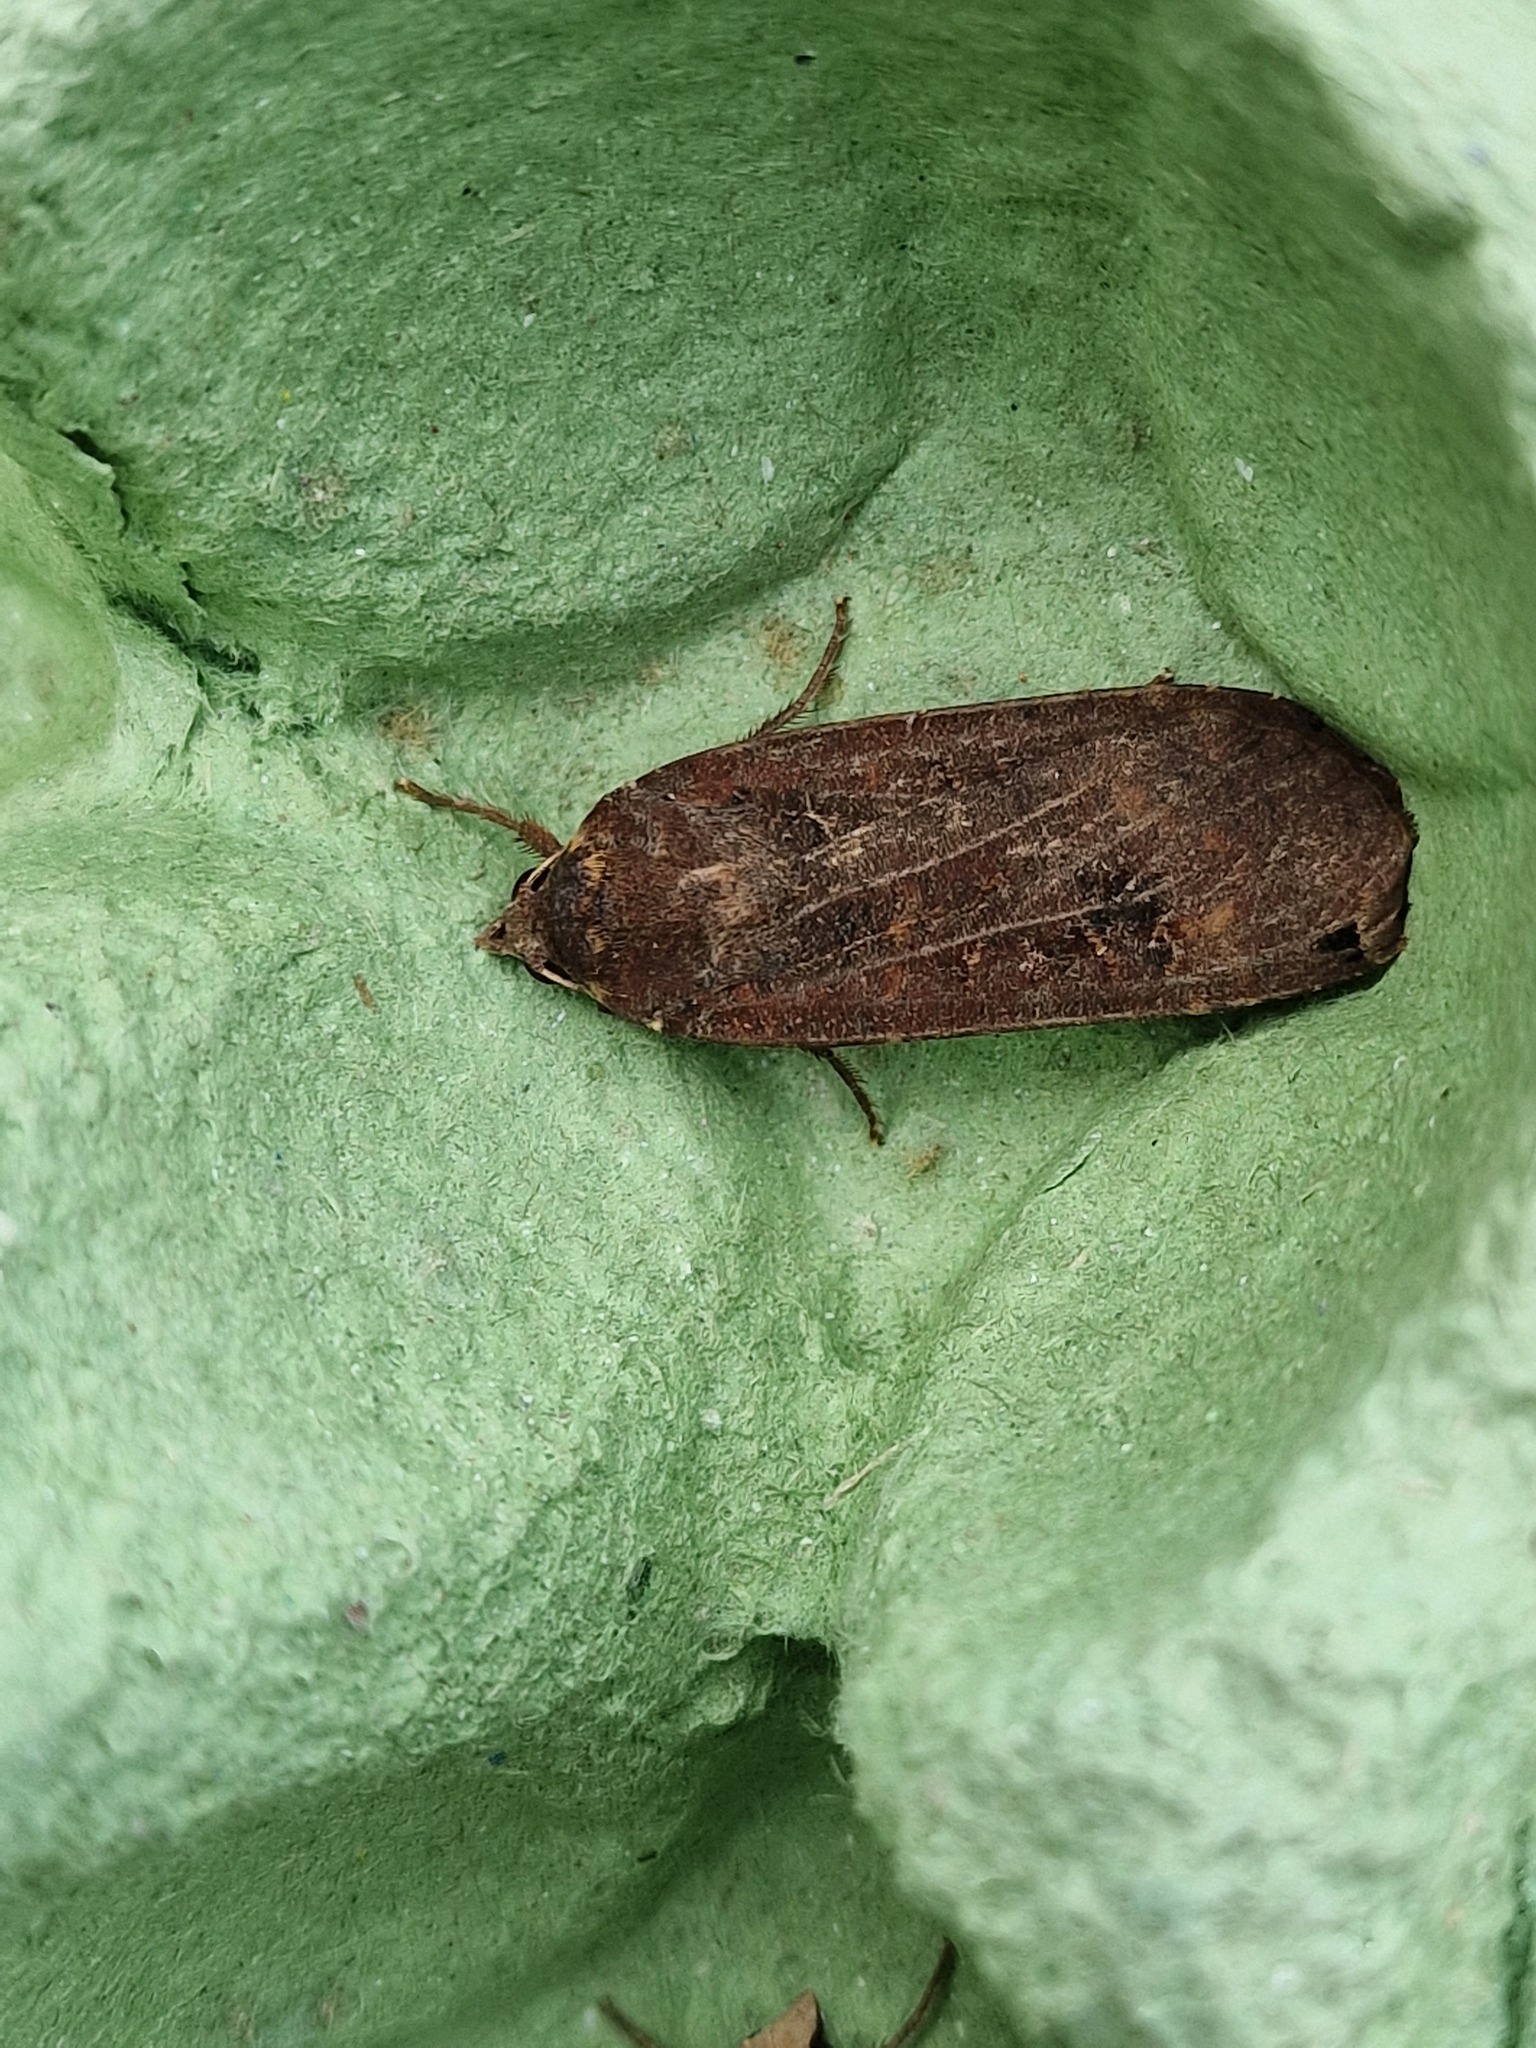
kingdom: Animalia
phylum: Arthropoda
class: Insecta
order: Lepidoptera
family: Noctuidae
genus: Noctua
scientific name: Noctua pronuba
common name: Large yellow underwing
